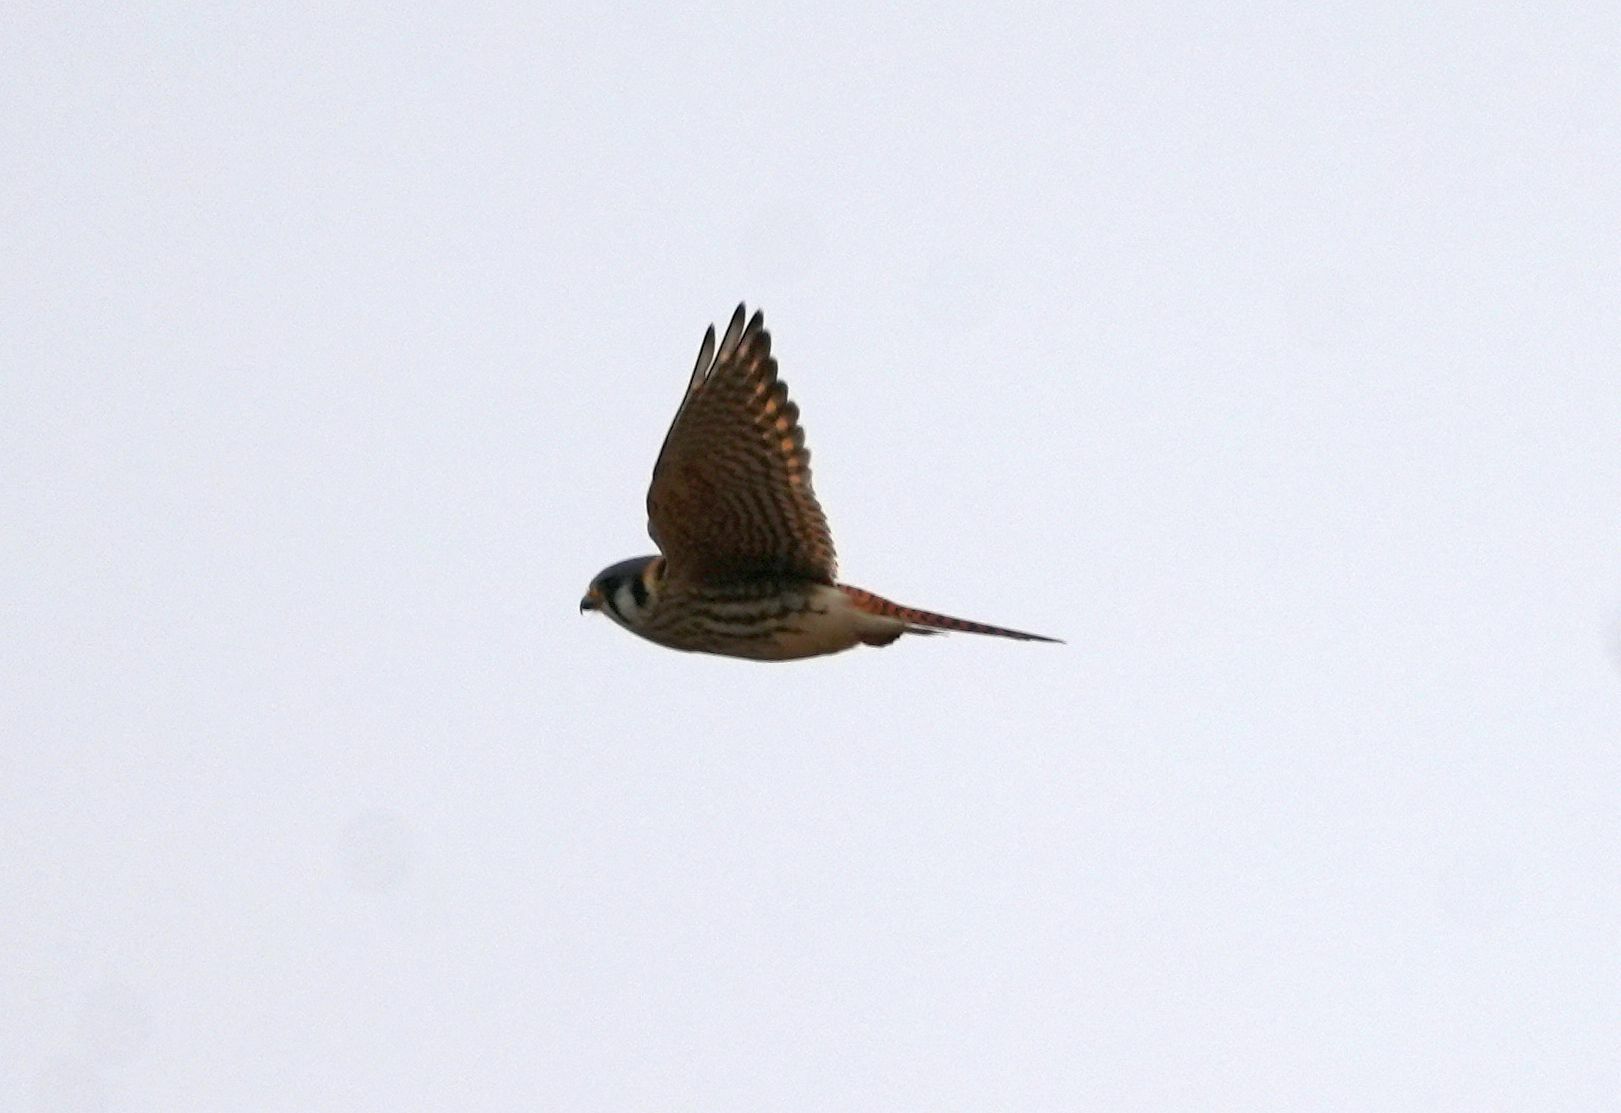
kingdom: Animalia
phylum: Chordata
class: Aves
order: Falconiformes
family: Falconidae
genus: Falco
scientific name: Falco sparverius
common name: American kestrel
